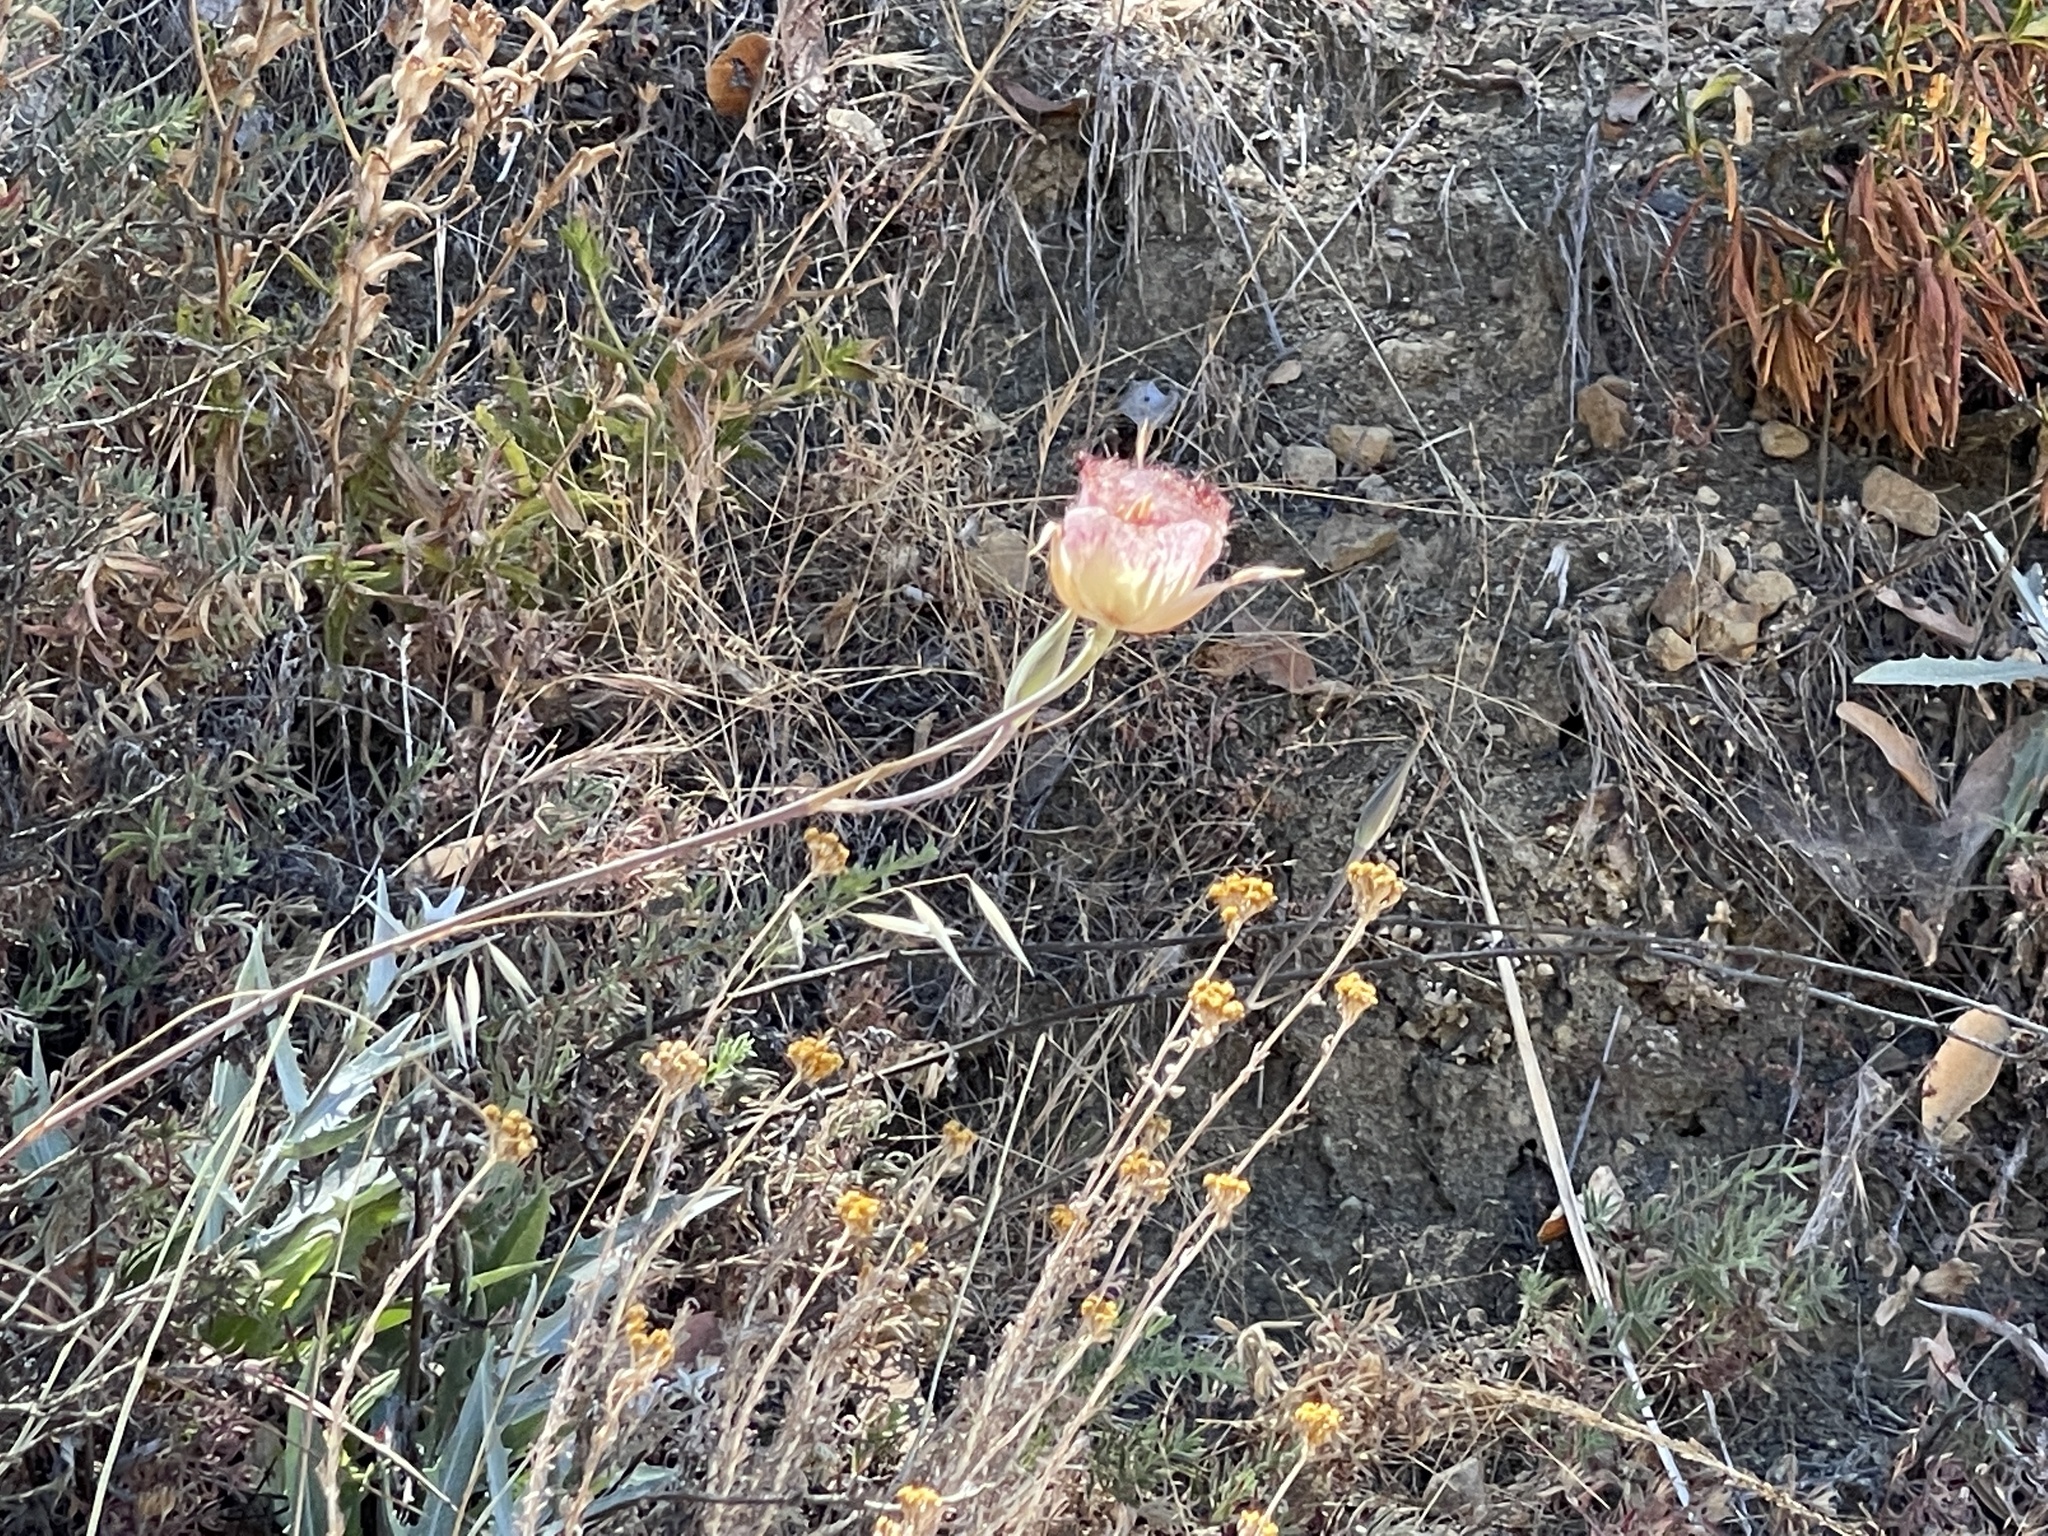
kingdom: Plantae
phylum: Tracheophyta
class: Liliopsida
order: Liliales
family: Liliaceae
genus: Calochortus
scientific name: Calochortus fimbriatus
